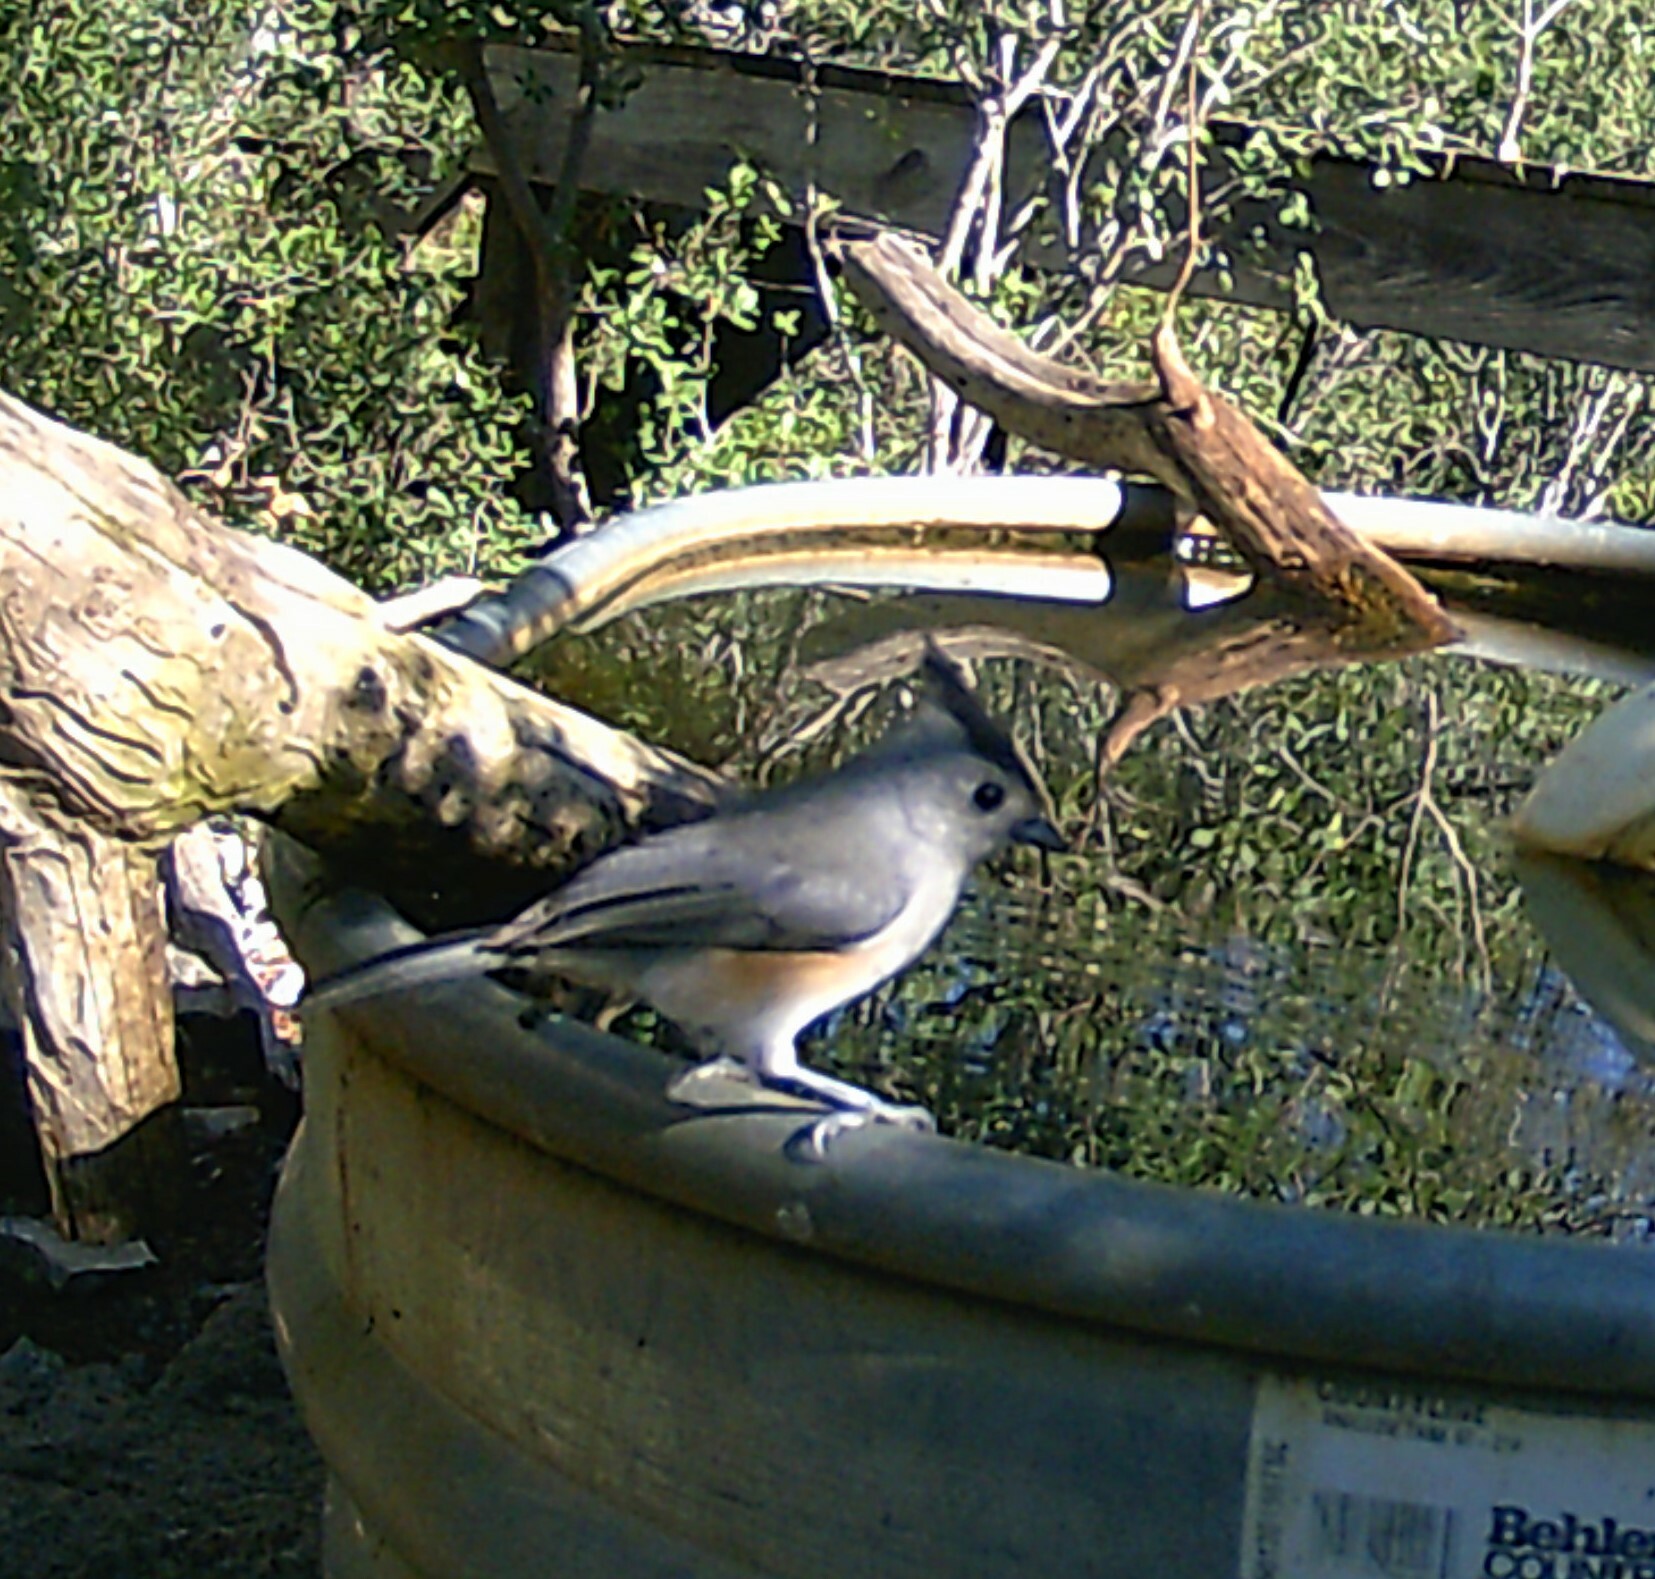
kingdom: Animalia
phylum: Chordata
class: Aves
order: Passeriformes
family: Paridae
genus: Baeolophus
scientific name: Baeolophus atricristatus
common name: Black-crested titmouse
